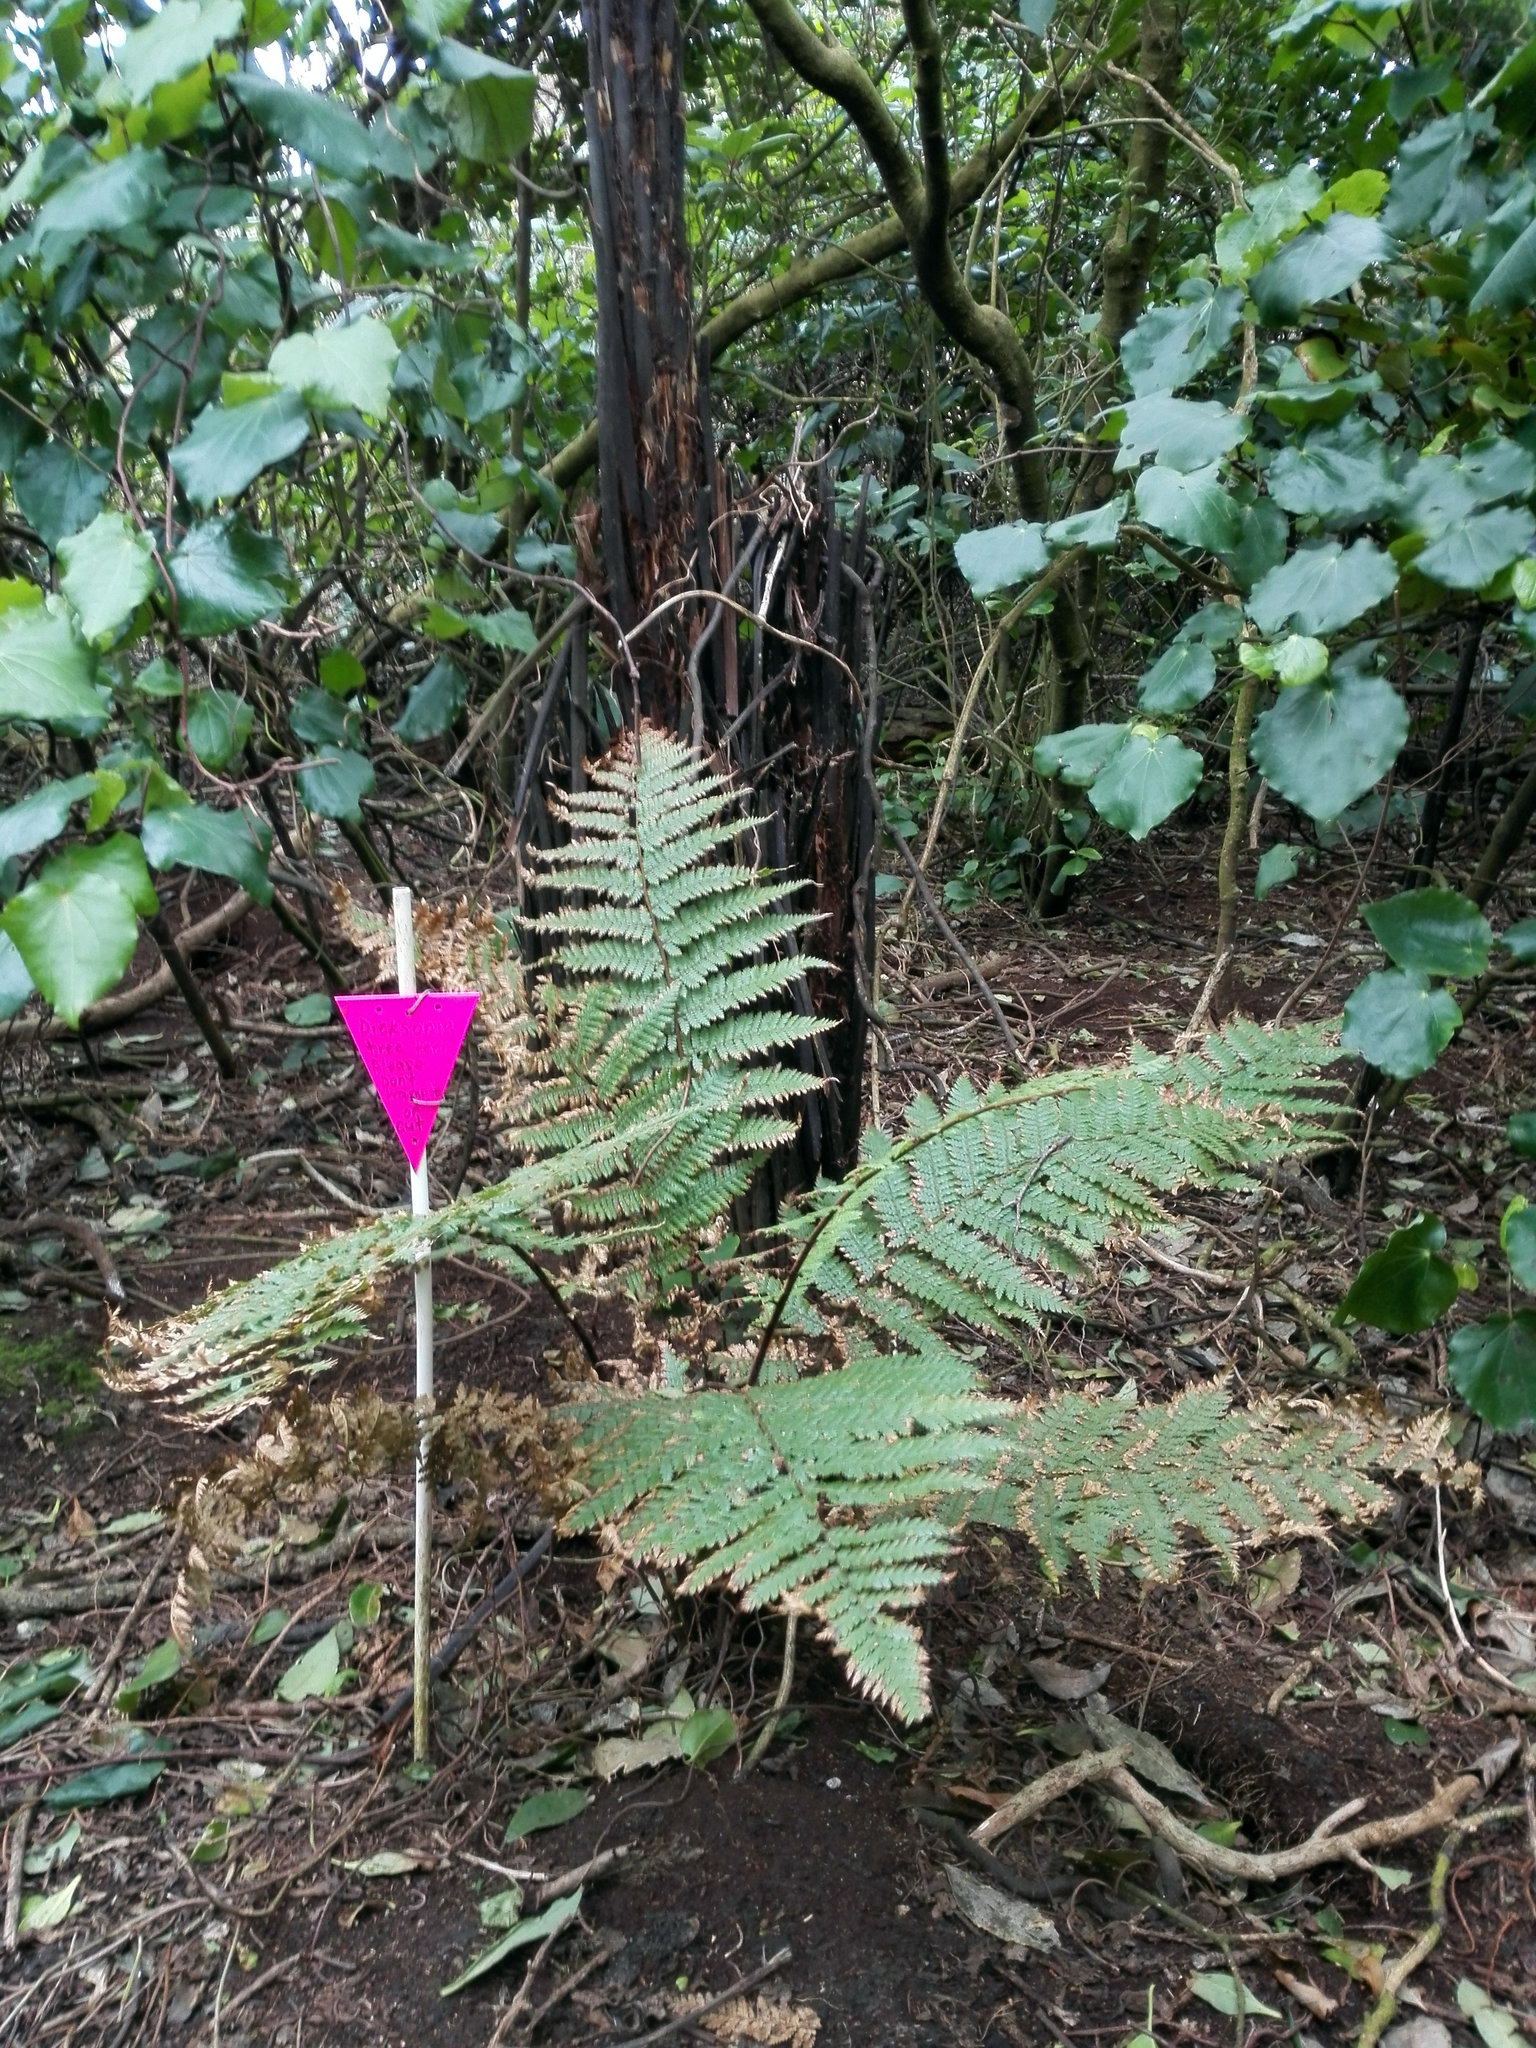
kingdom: Plantae
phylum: Tracheophyta
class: Polypodiopsida
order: Cyatheales
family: Dicksoniaceae
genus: Dicksonia
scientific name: Dicksonia squarrosa
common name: Hard treefern
